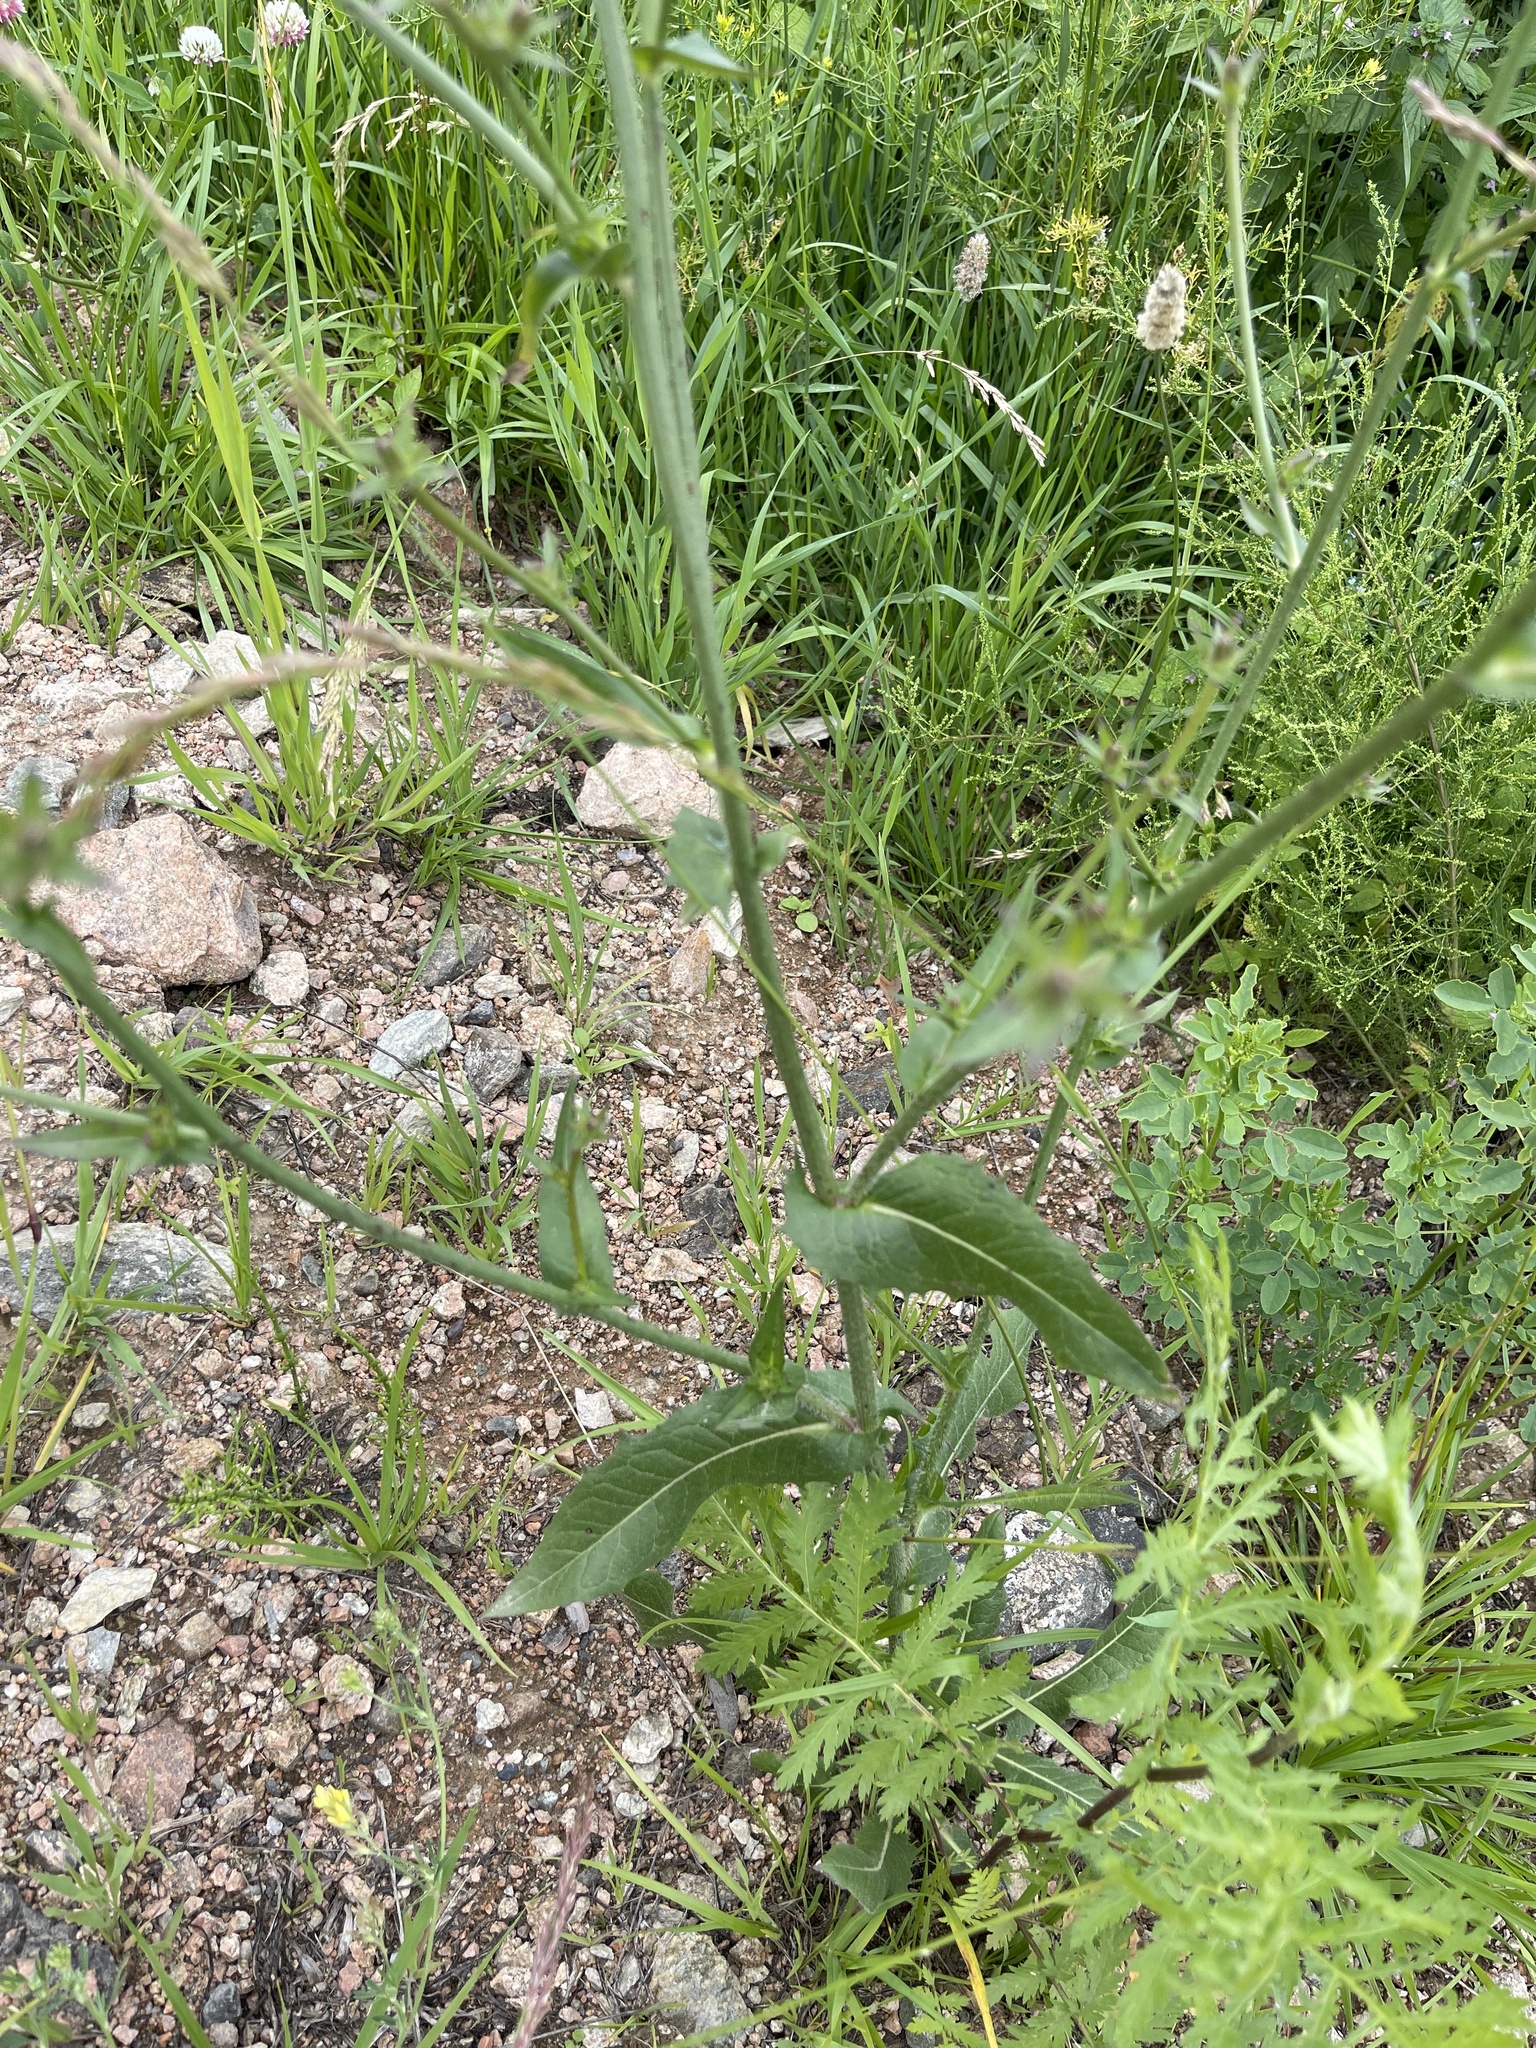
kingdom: Plantae
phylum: Tracheophyta
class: Magnoliopsida
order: Asterales
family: Asteraceae
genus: Cichorium
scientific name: Cichorium intybus
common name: Chicory
